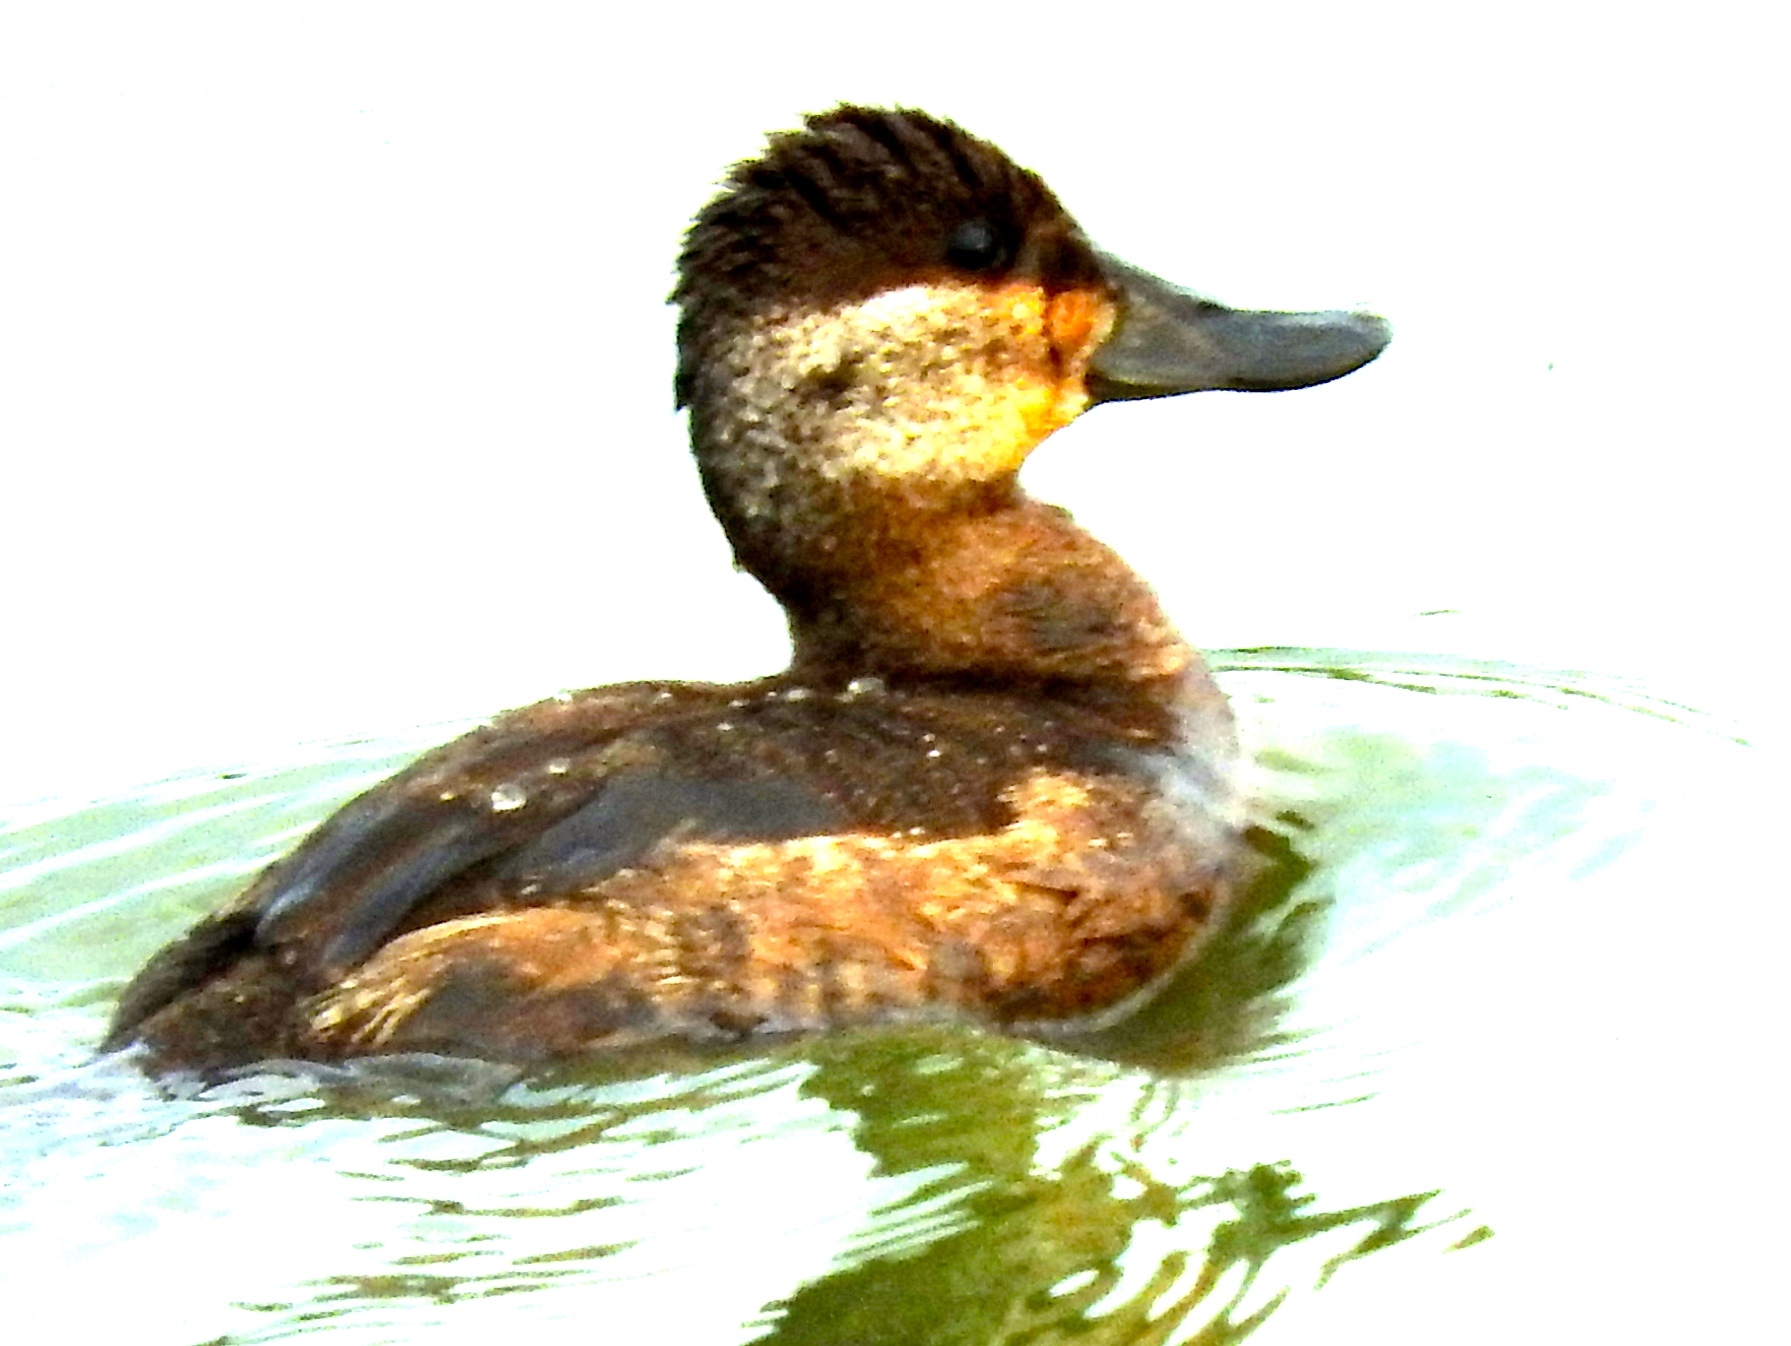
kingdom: Animalia
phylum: Chordata
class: Aves
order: Anseriformes
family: Anatidae
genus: Oxyura
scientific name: Oxyura jamaicensis
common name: Ruddy duck
